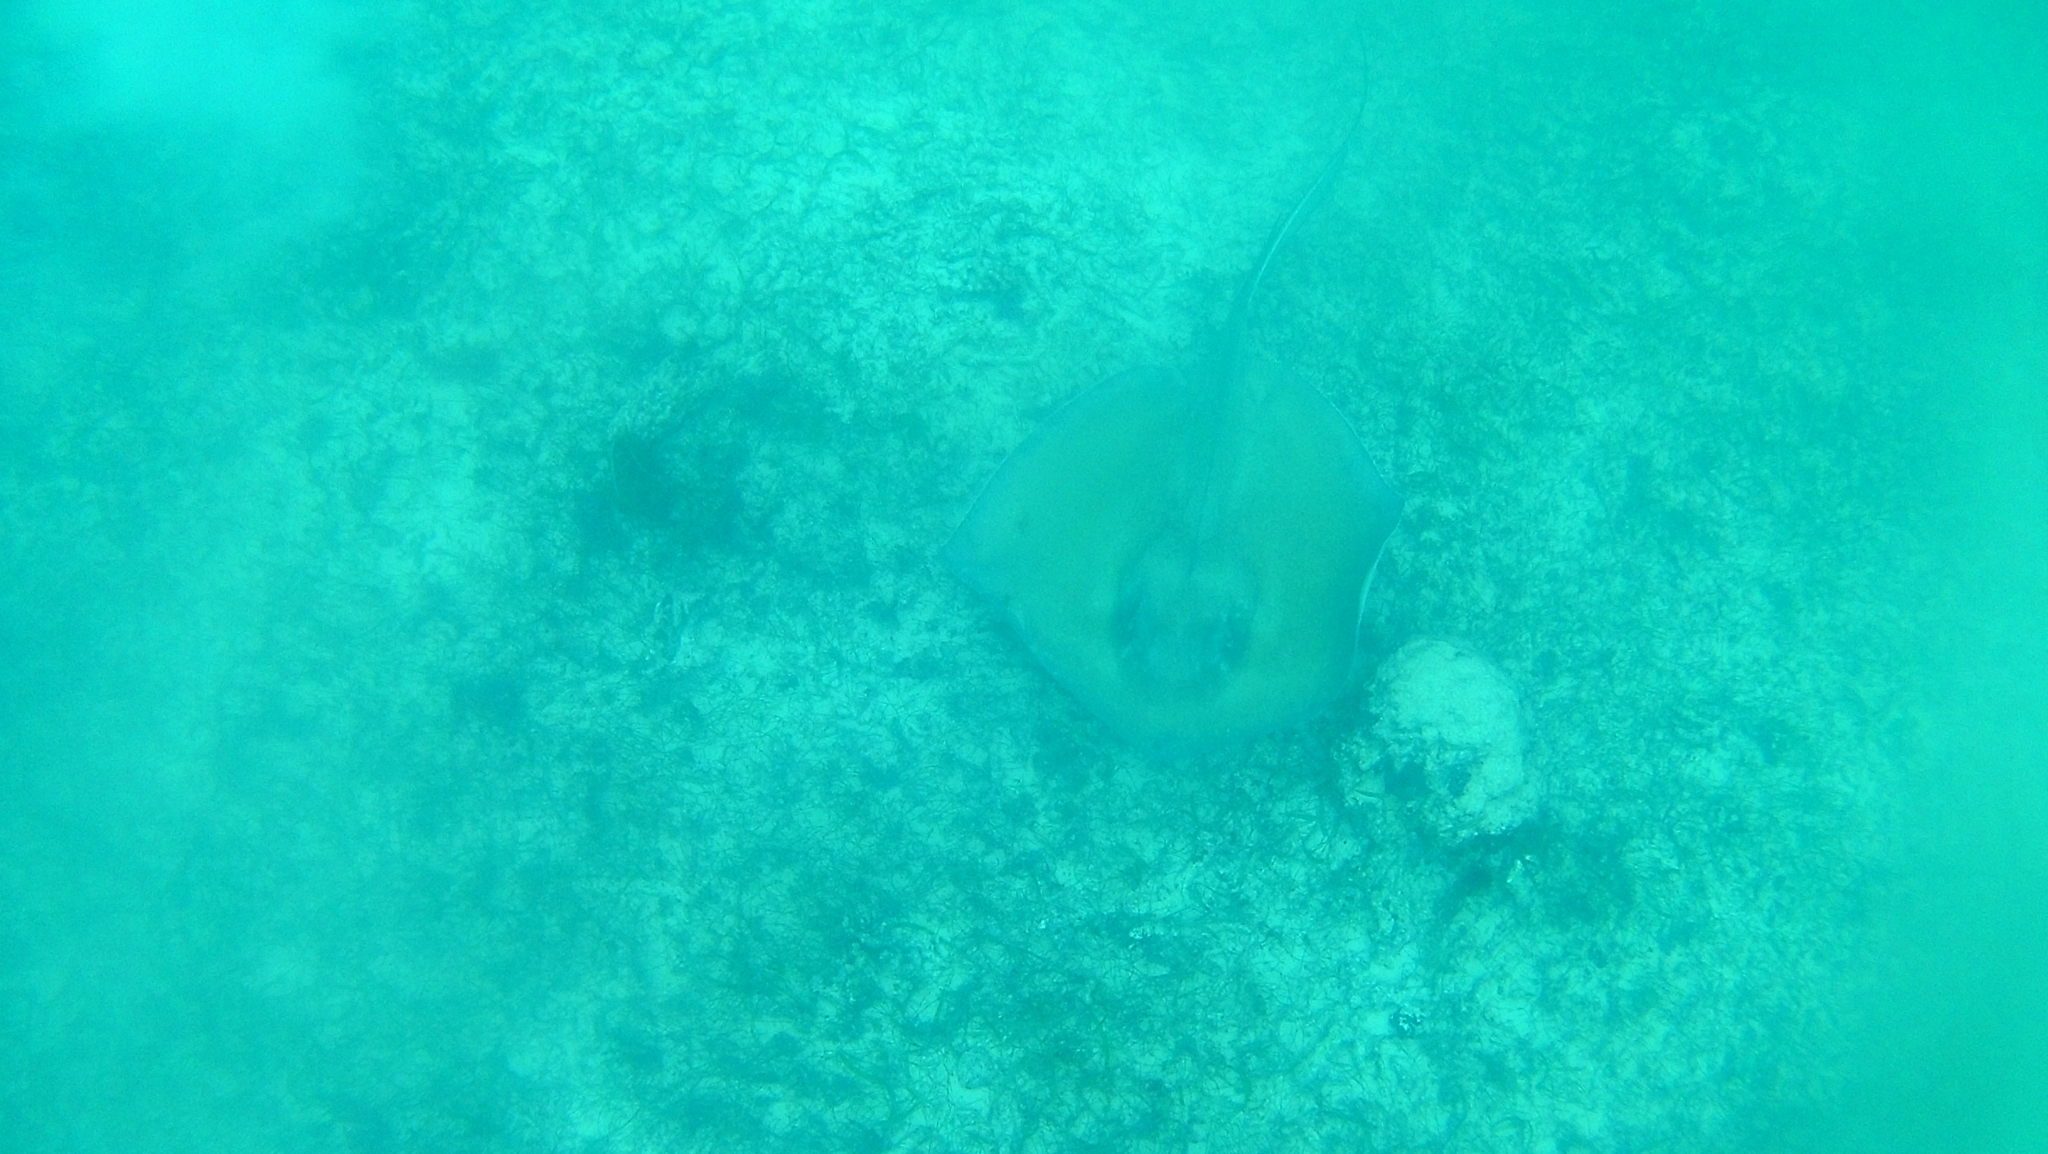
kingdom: Animalia
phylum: Chordata
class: Elasmobranchii
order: Myliobatiformes
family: Dasyatidae
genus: Hypanus
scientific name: Hypanus americanus
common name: Southern stingray
